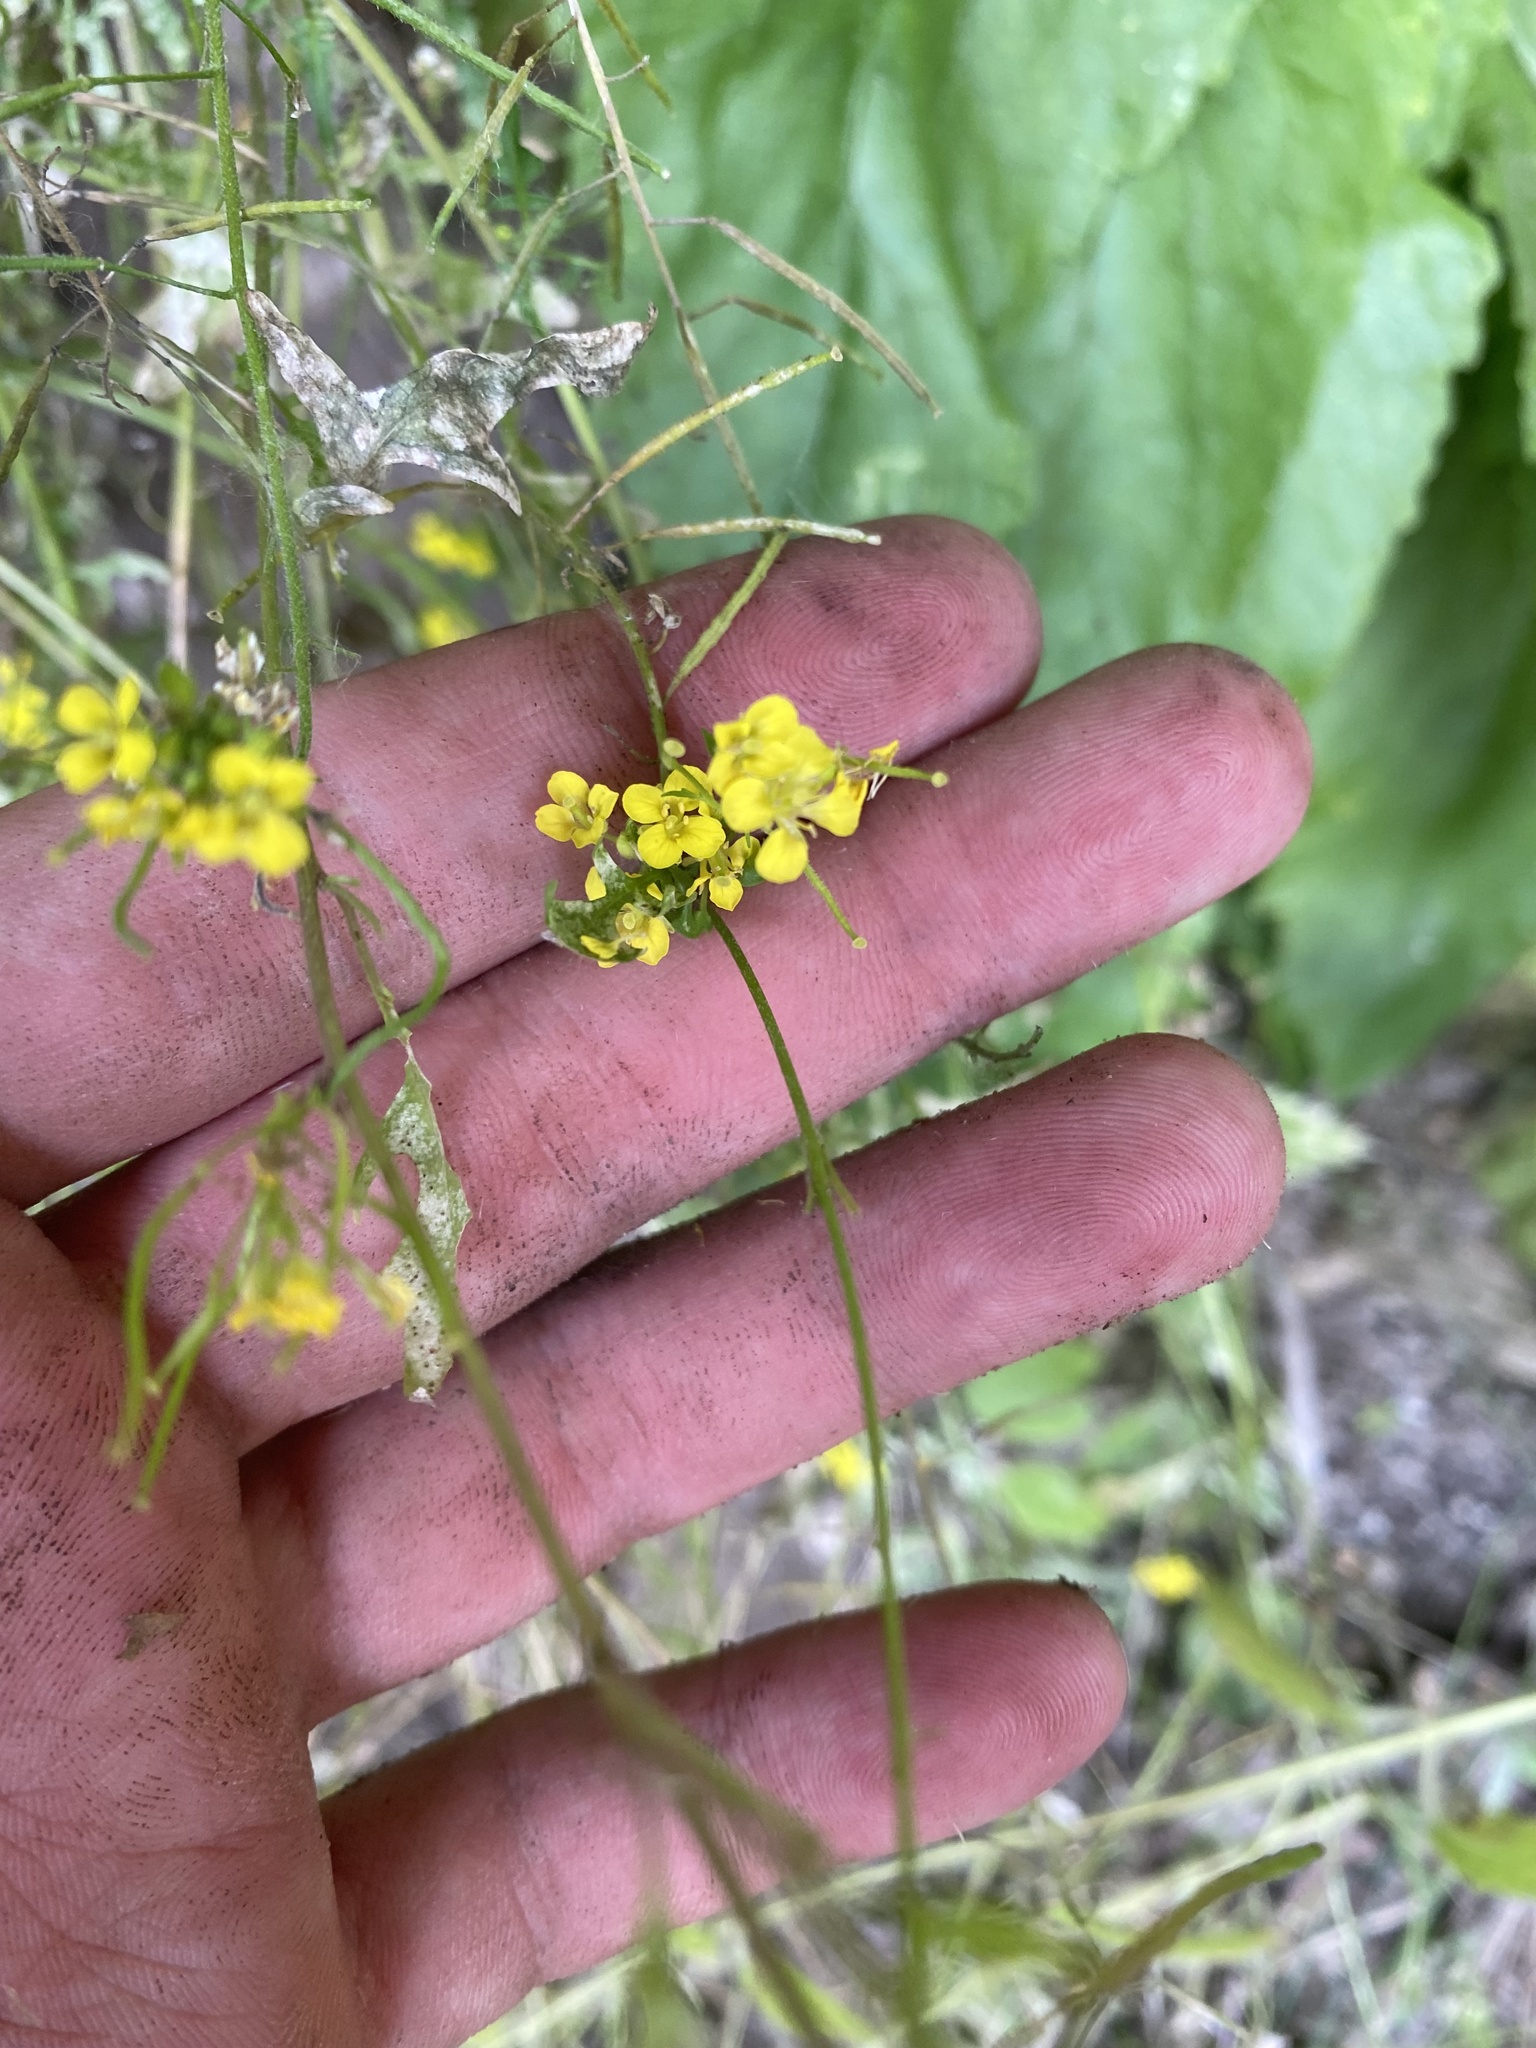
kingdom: Plantae
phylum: Tracheophyta
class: Magnoliopsida
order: Brassicales
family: Brassicaceae
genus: Sisymbrium
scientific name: Sisymbrium loeselii
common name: False london-rocket
